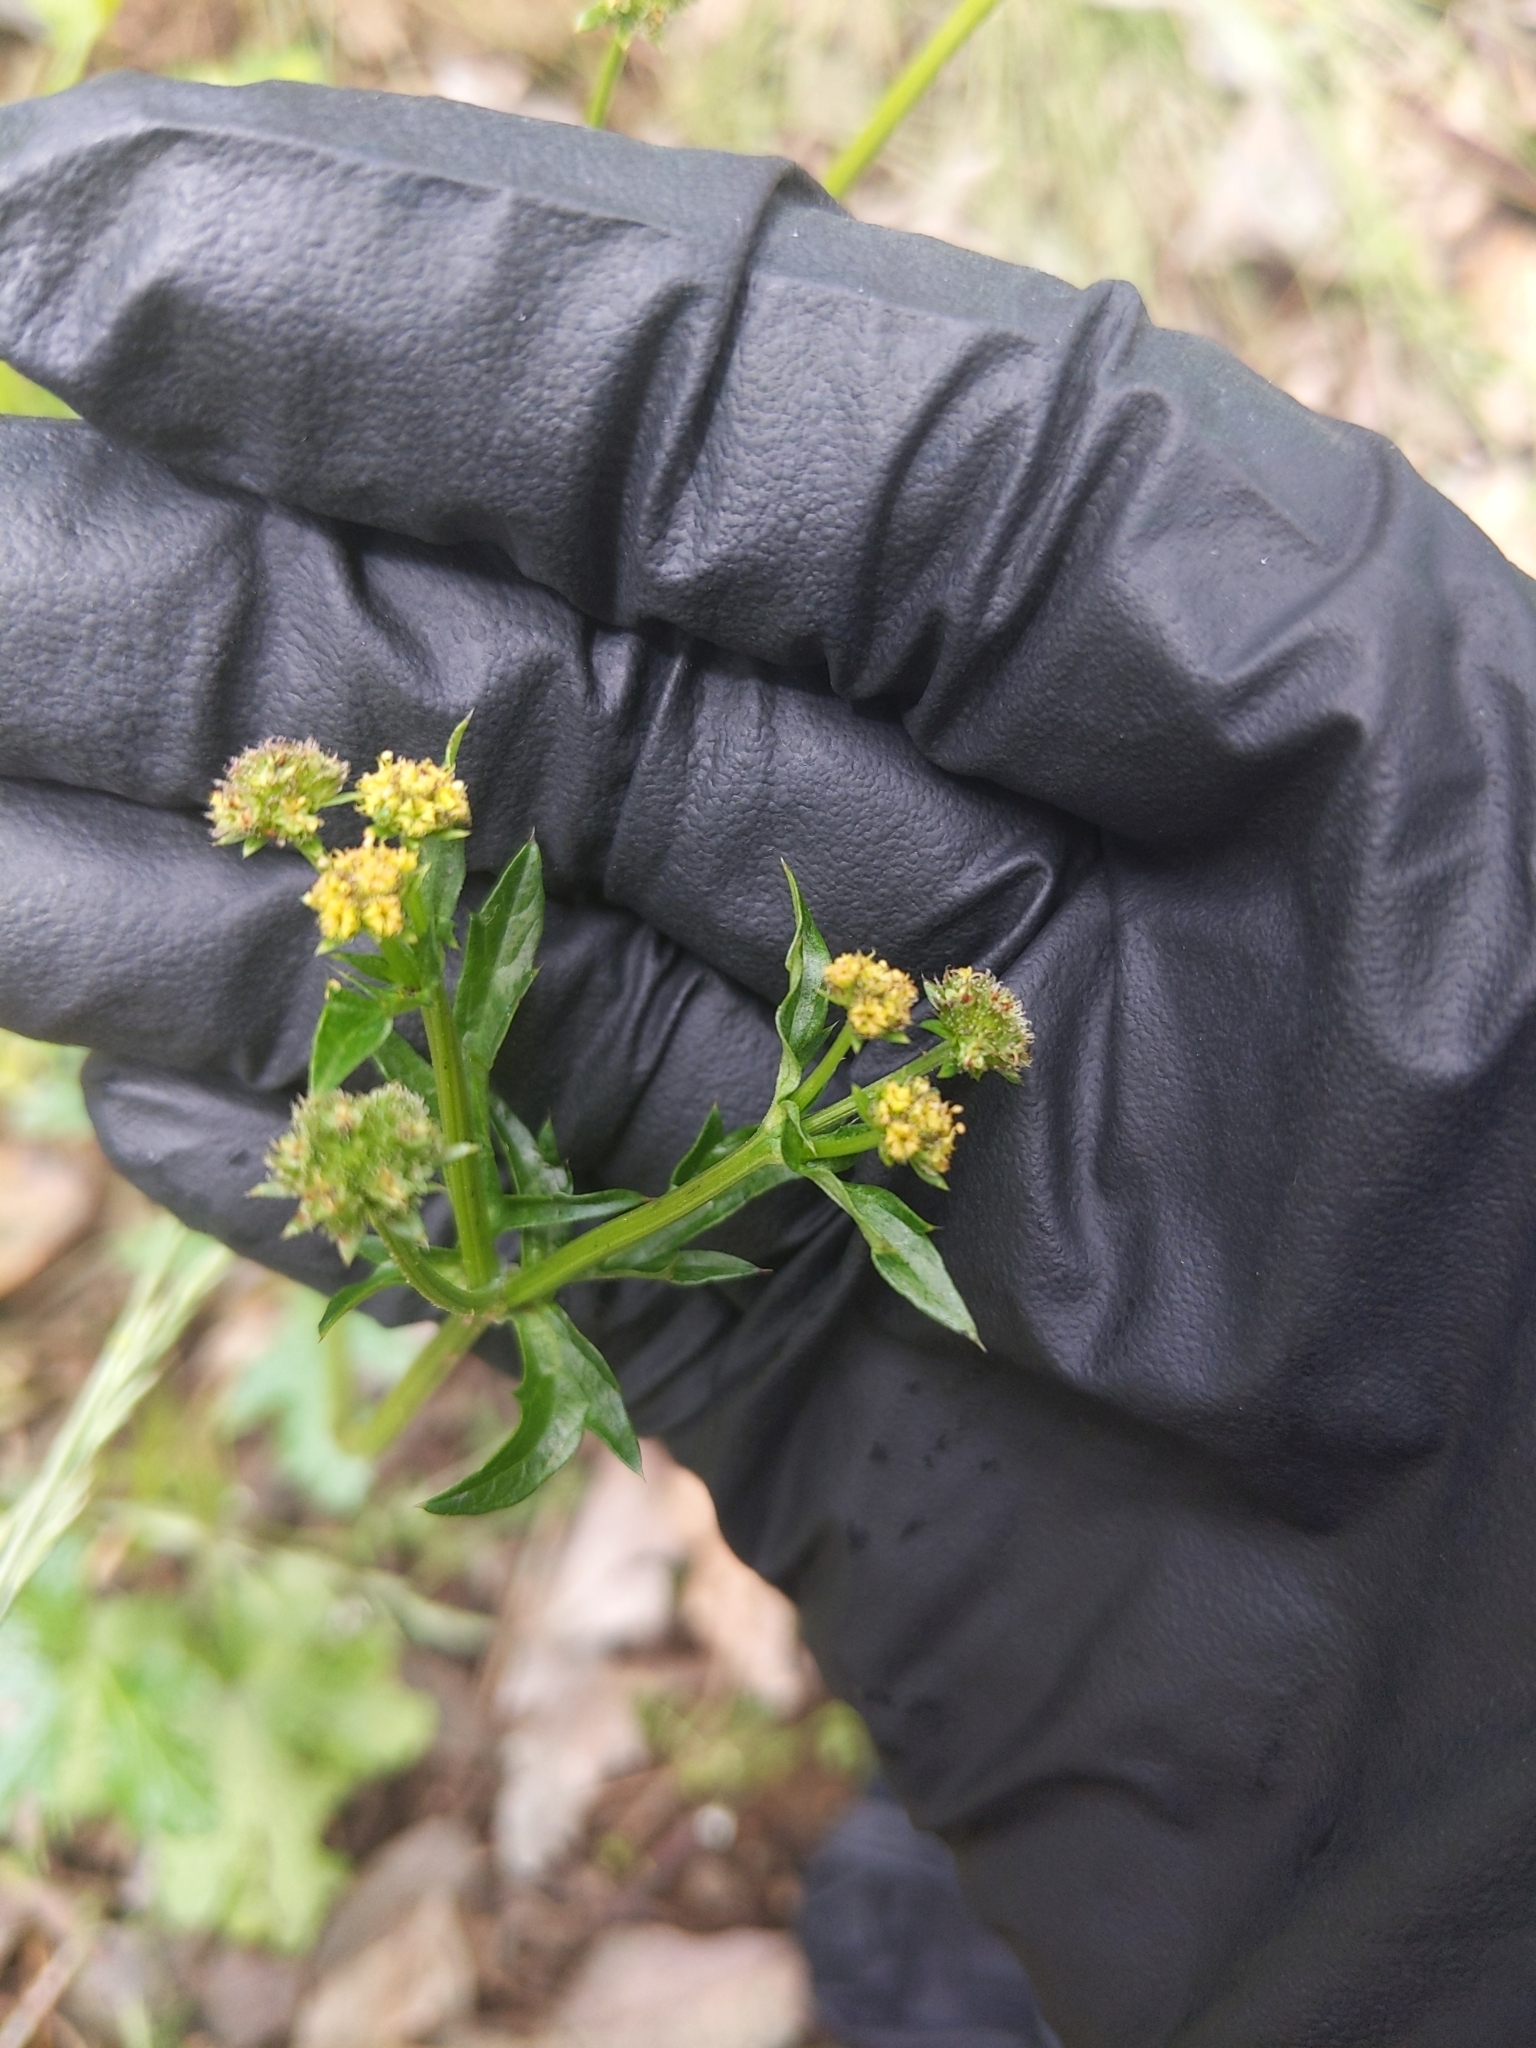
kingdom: Plantae
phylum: Tracheophyta
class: Magnoliopsida
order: Apiales
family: Apiaceae
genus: Sanicula
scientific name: Sanicula crassicaulis
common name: Western snakeroot
